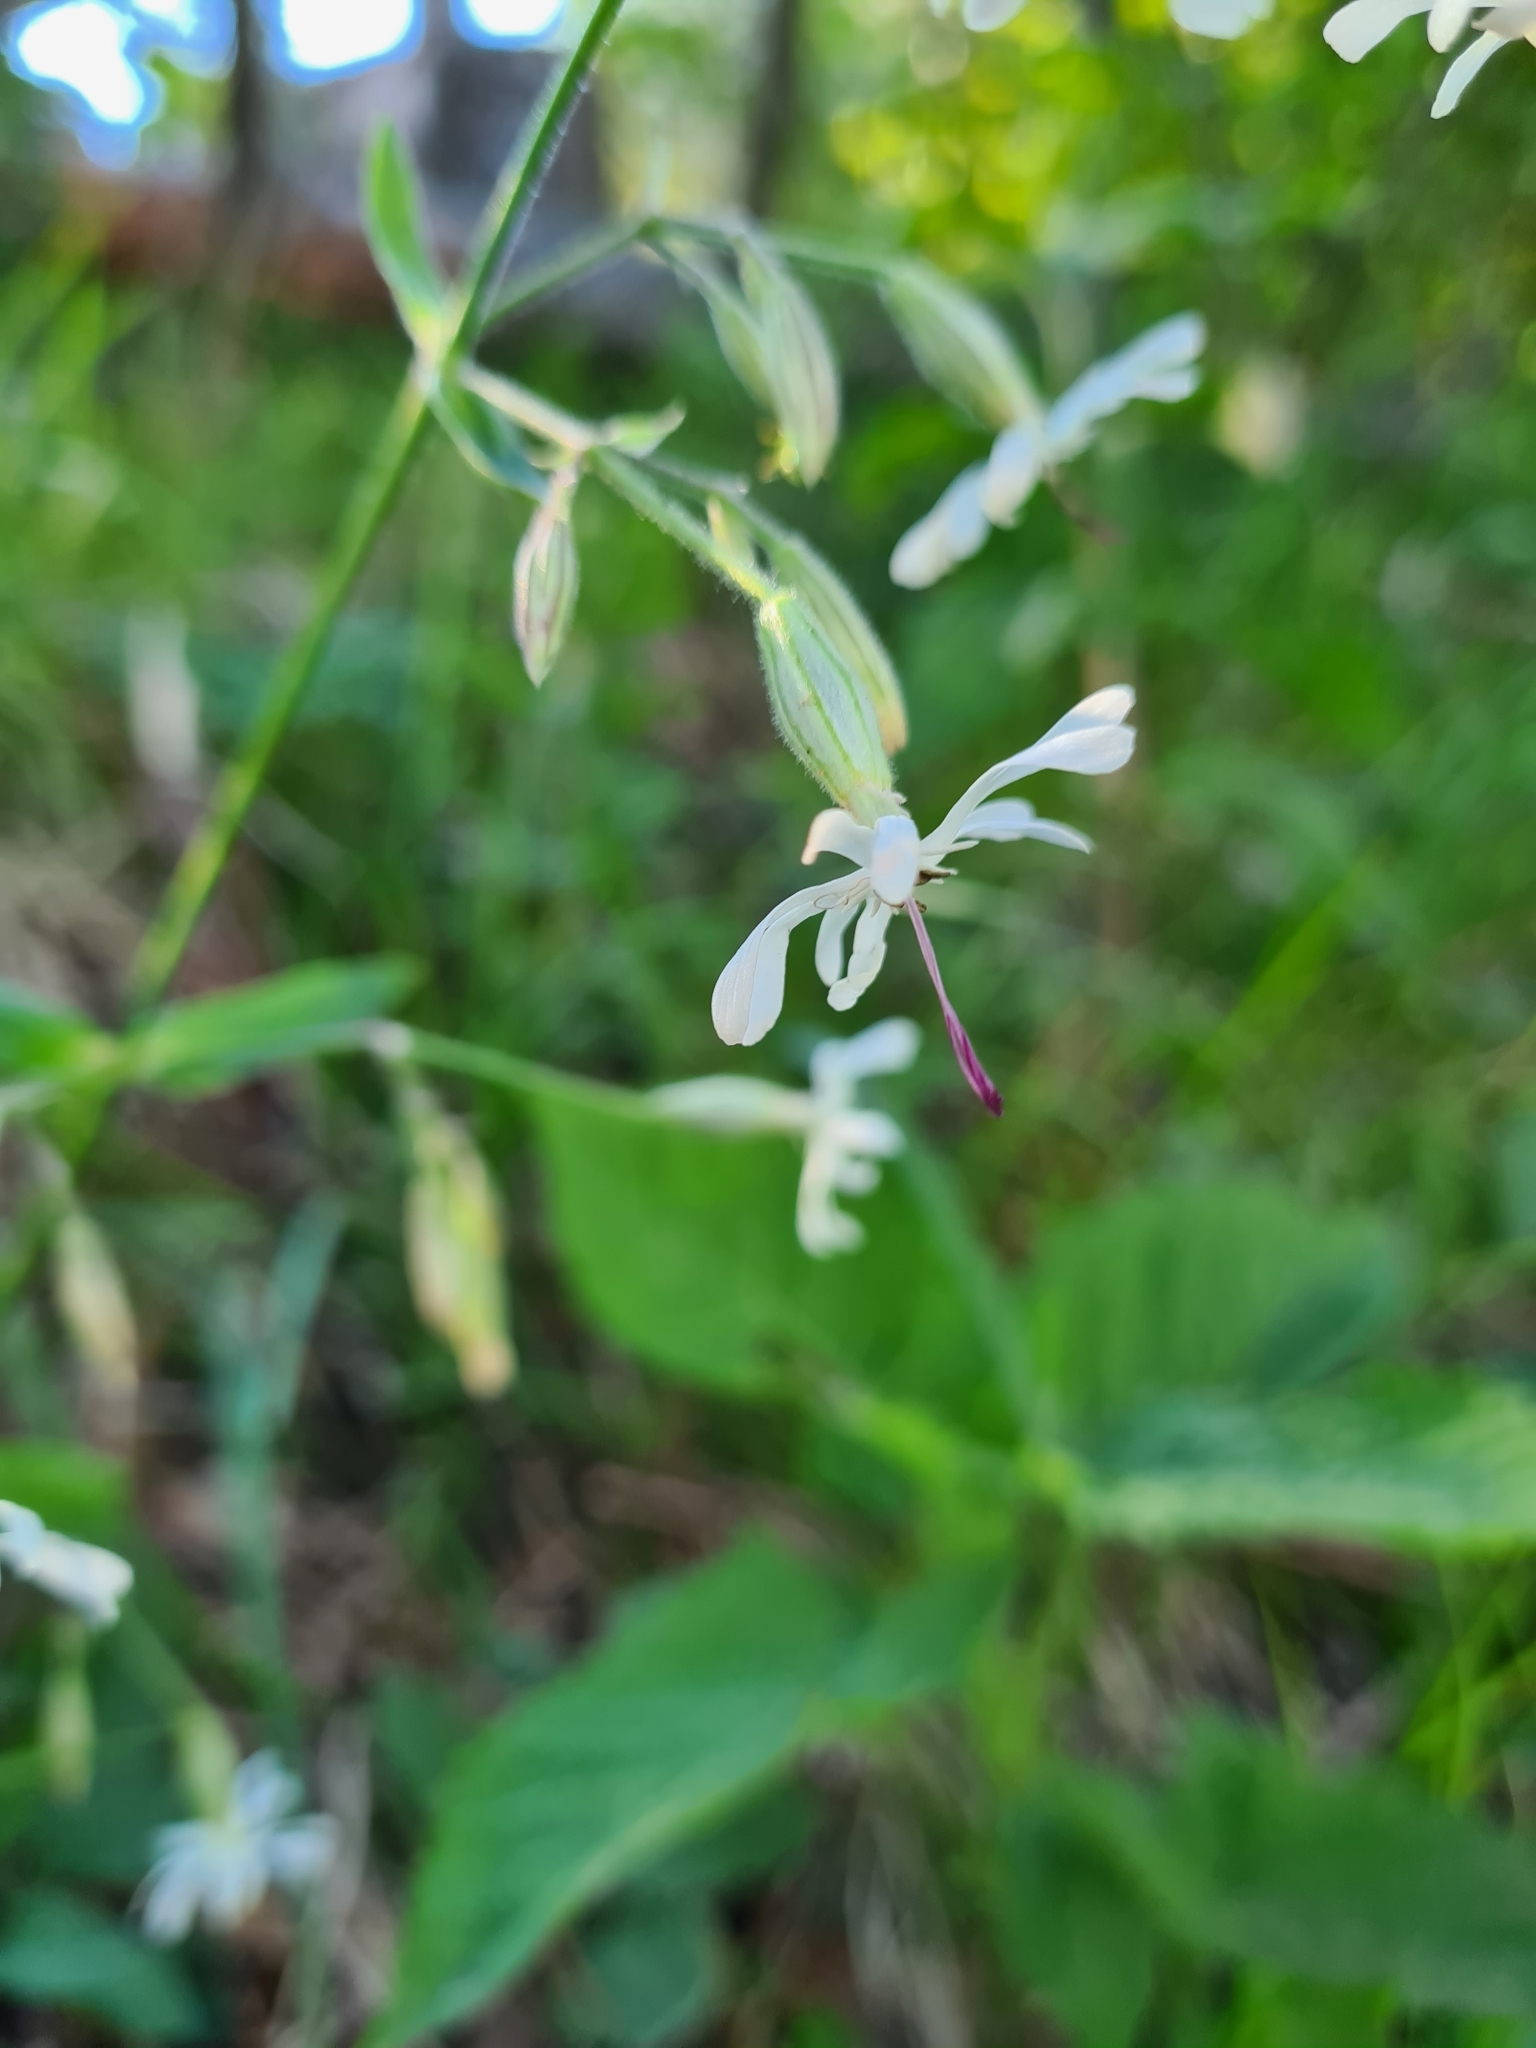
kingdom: Plantae
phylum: Tracheophyta
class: Magnoliopsida
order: Caryophyllales
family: Caryophyllaceae
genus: Silene
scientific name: Silene nutans
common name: Nottingham catchfly
